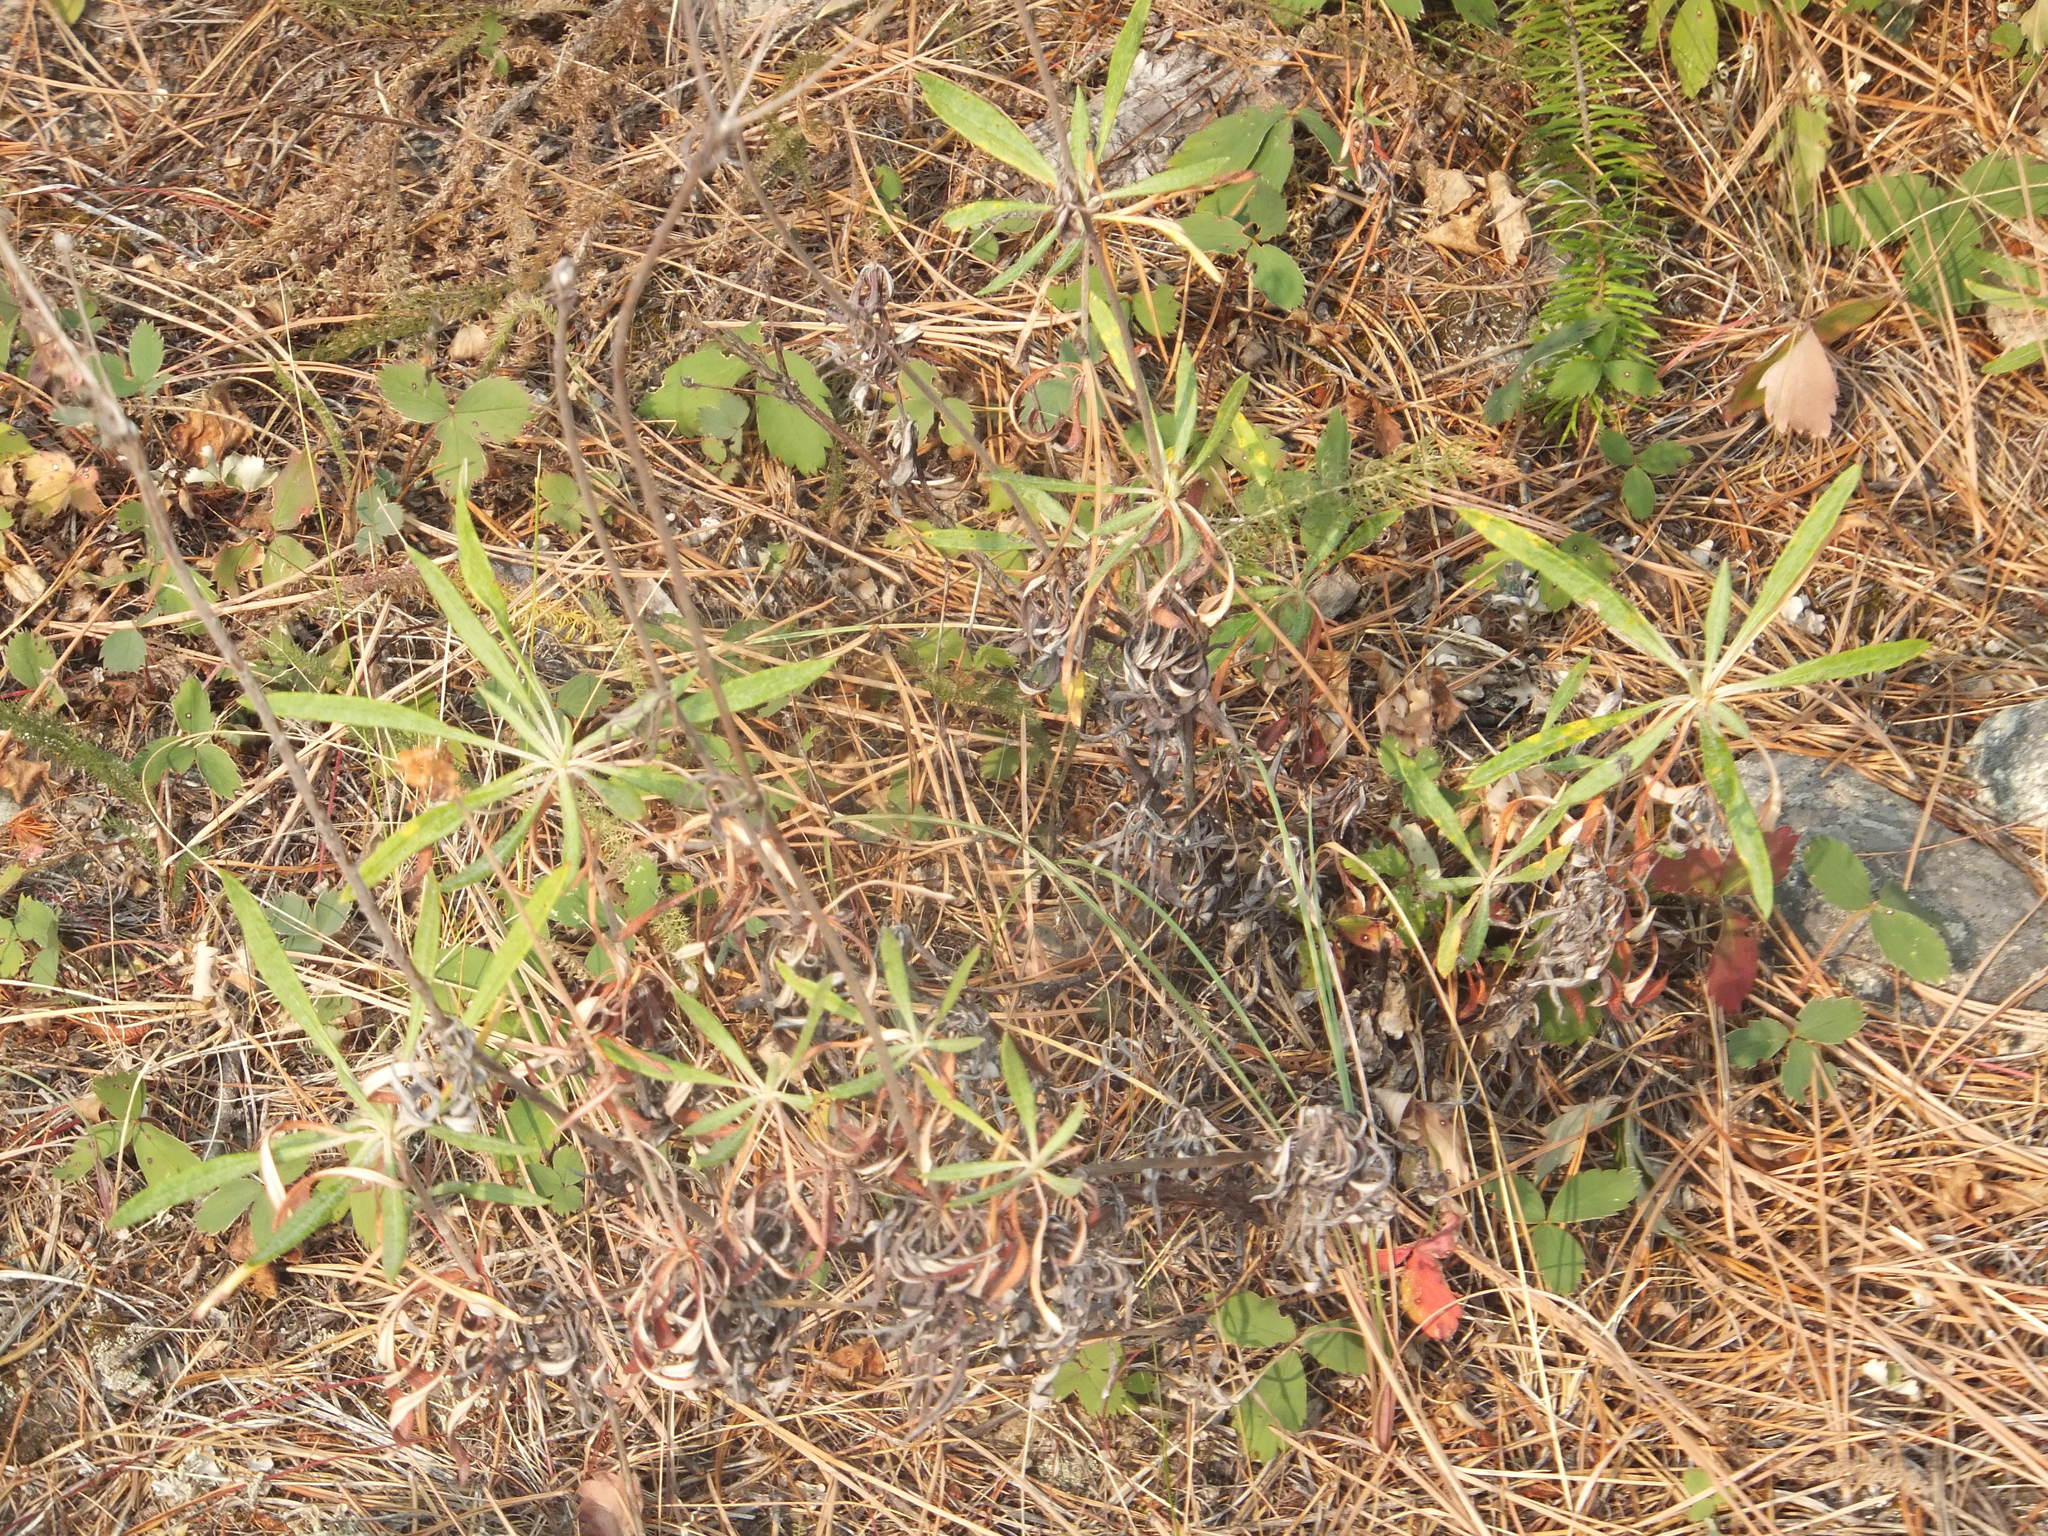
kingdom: Plantae
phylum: Tracheophyta
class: Magnoliopsida
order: Caryophyllales
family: Polygonaceae
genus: Eriogonum
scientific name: Eriogonum heracleoides
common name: Wyeth's buckwheat
